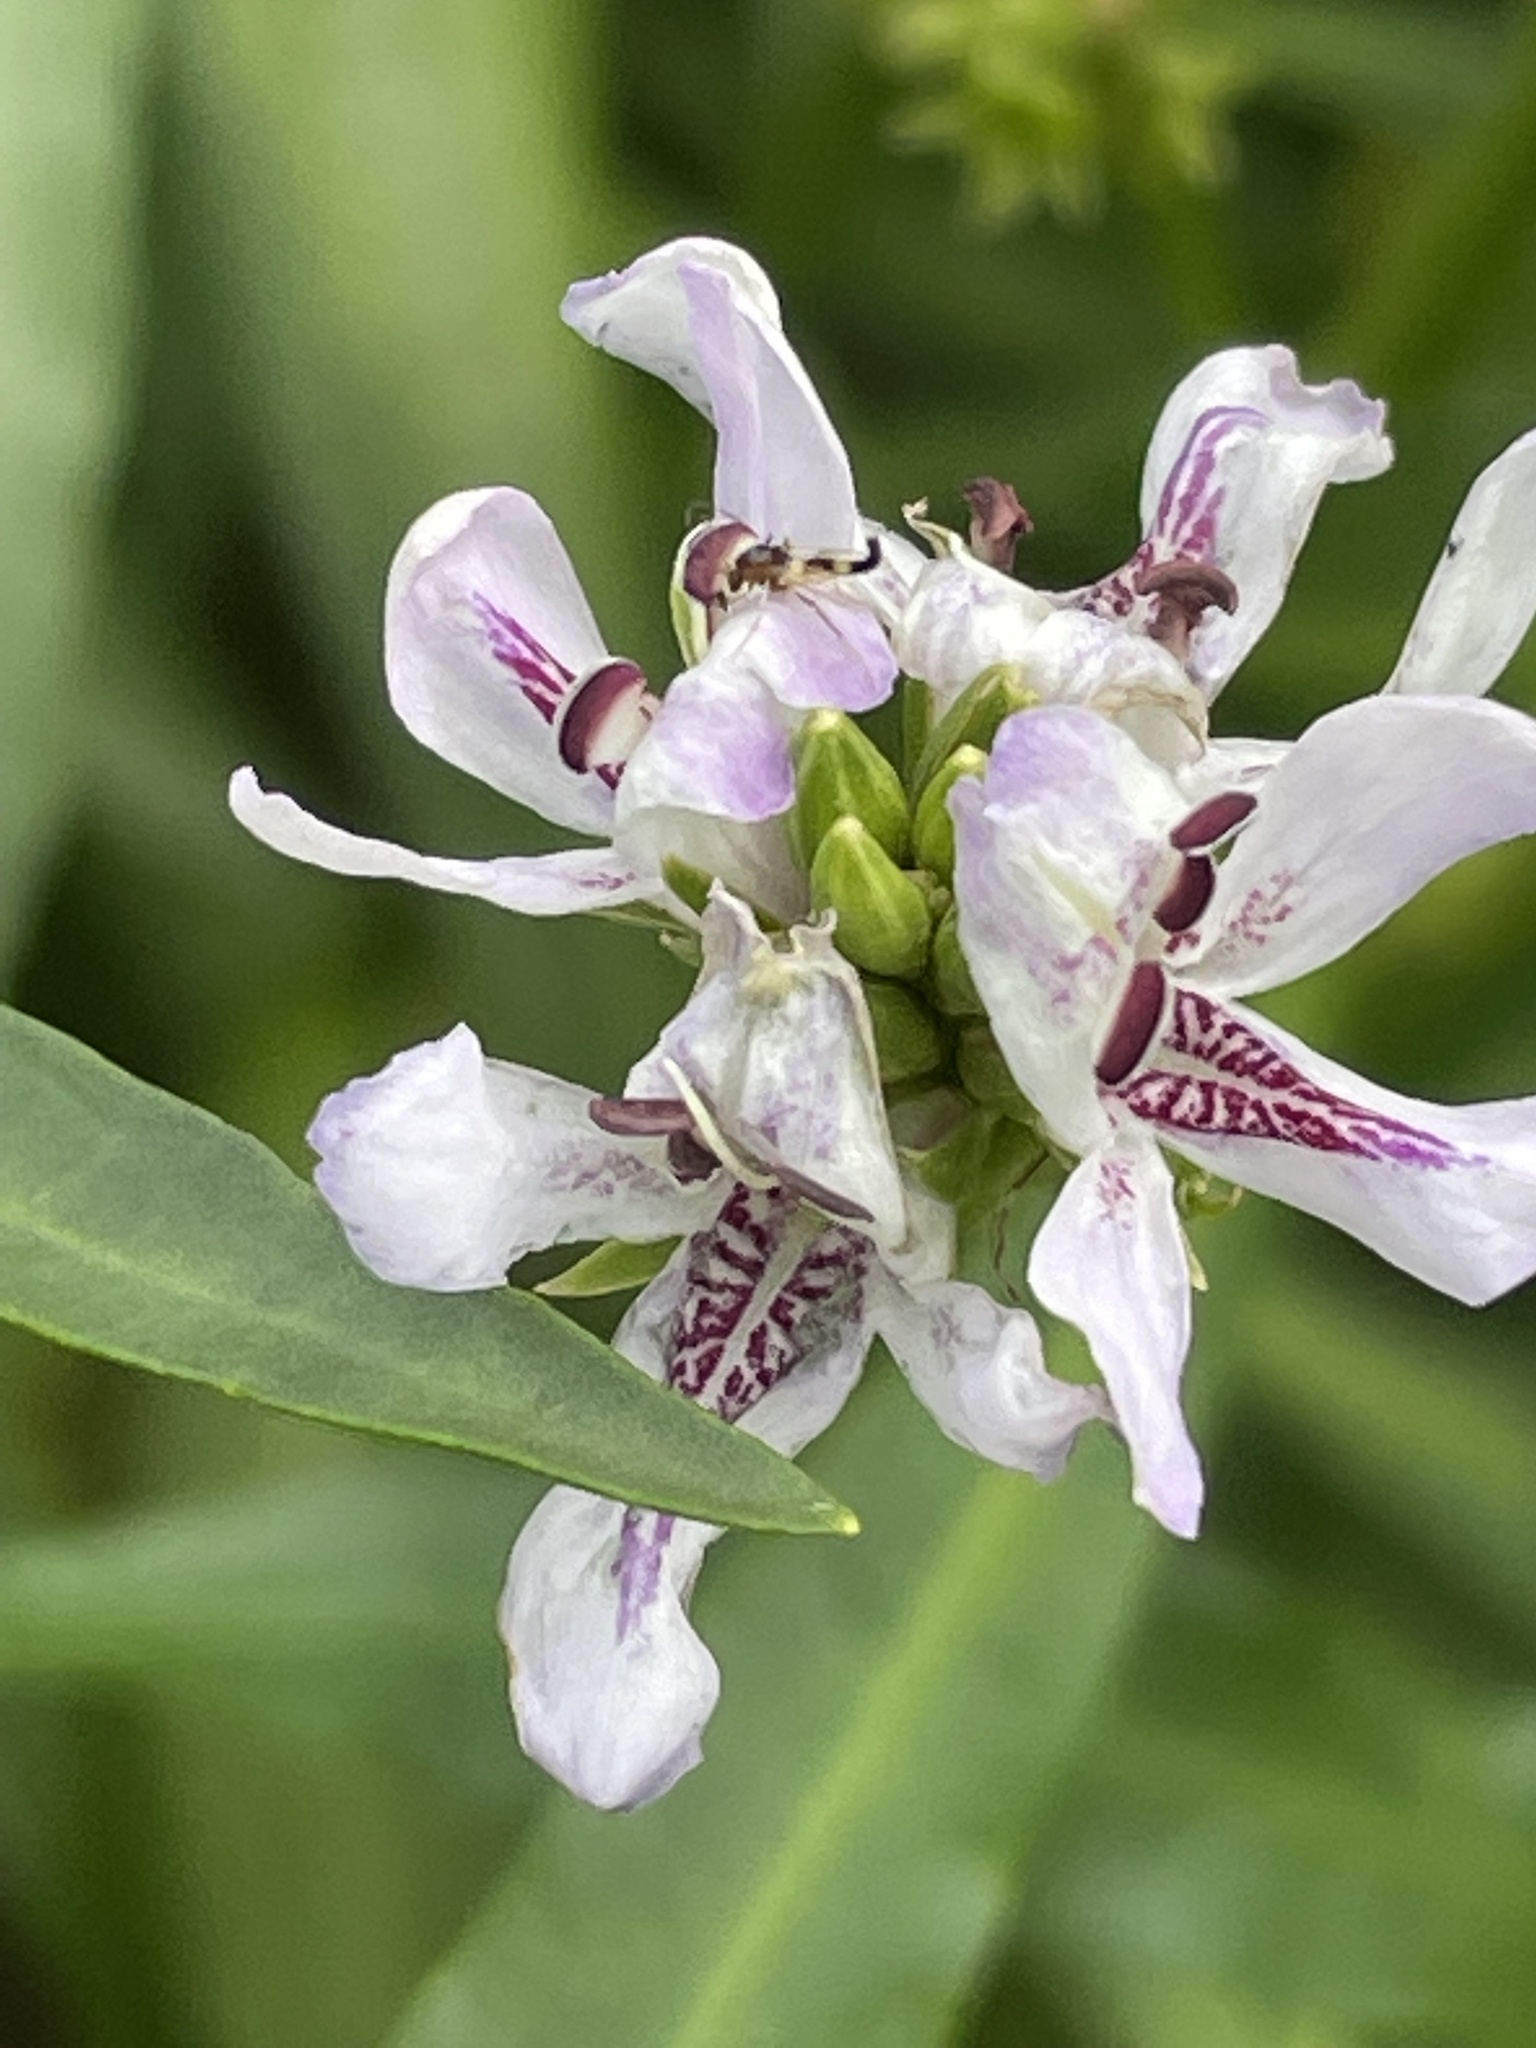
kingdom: Plantae
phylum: Tracheophyta
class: Magnoliopsida
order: Lamiales
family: Acanthaceae
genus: Dianthera
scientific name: Dianthera americana
